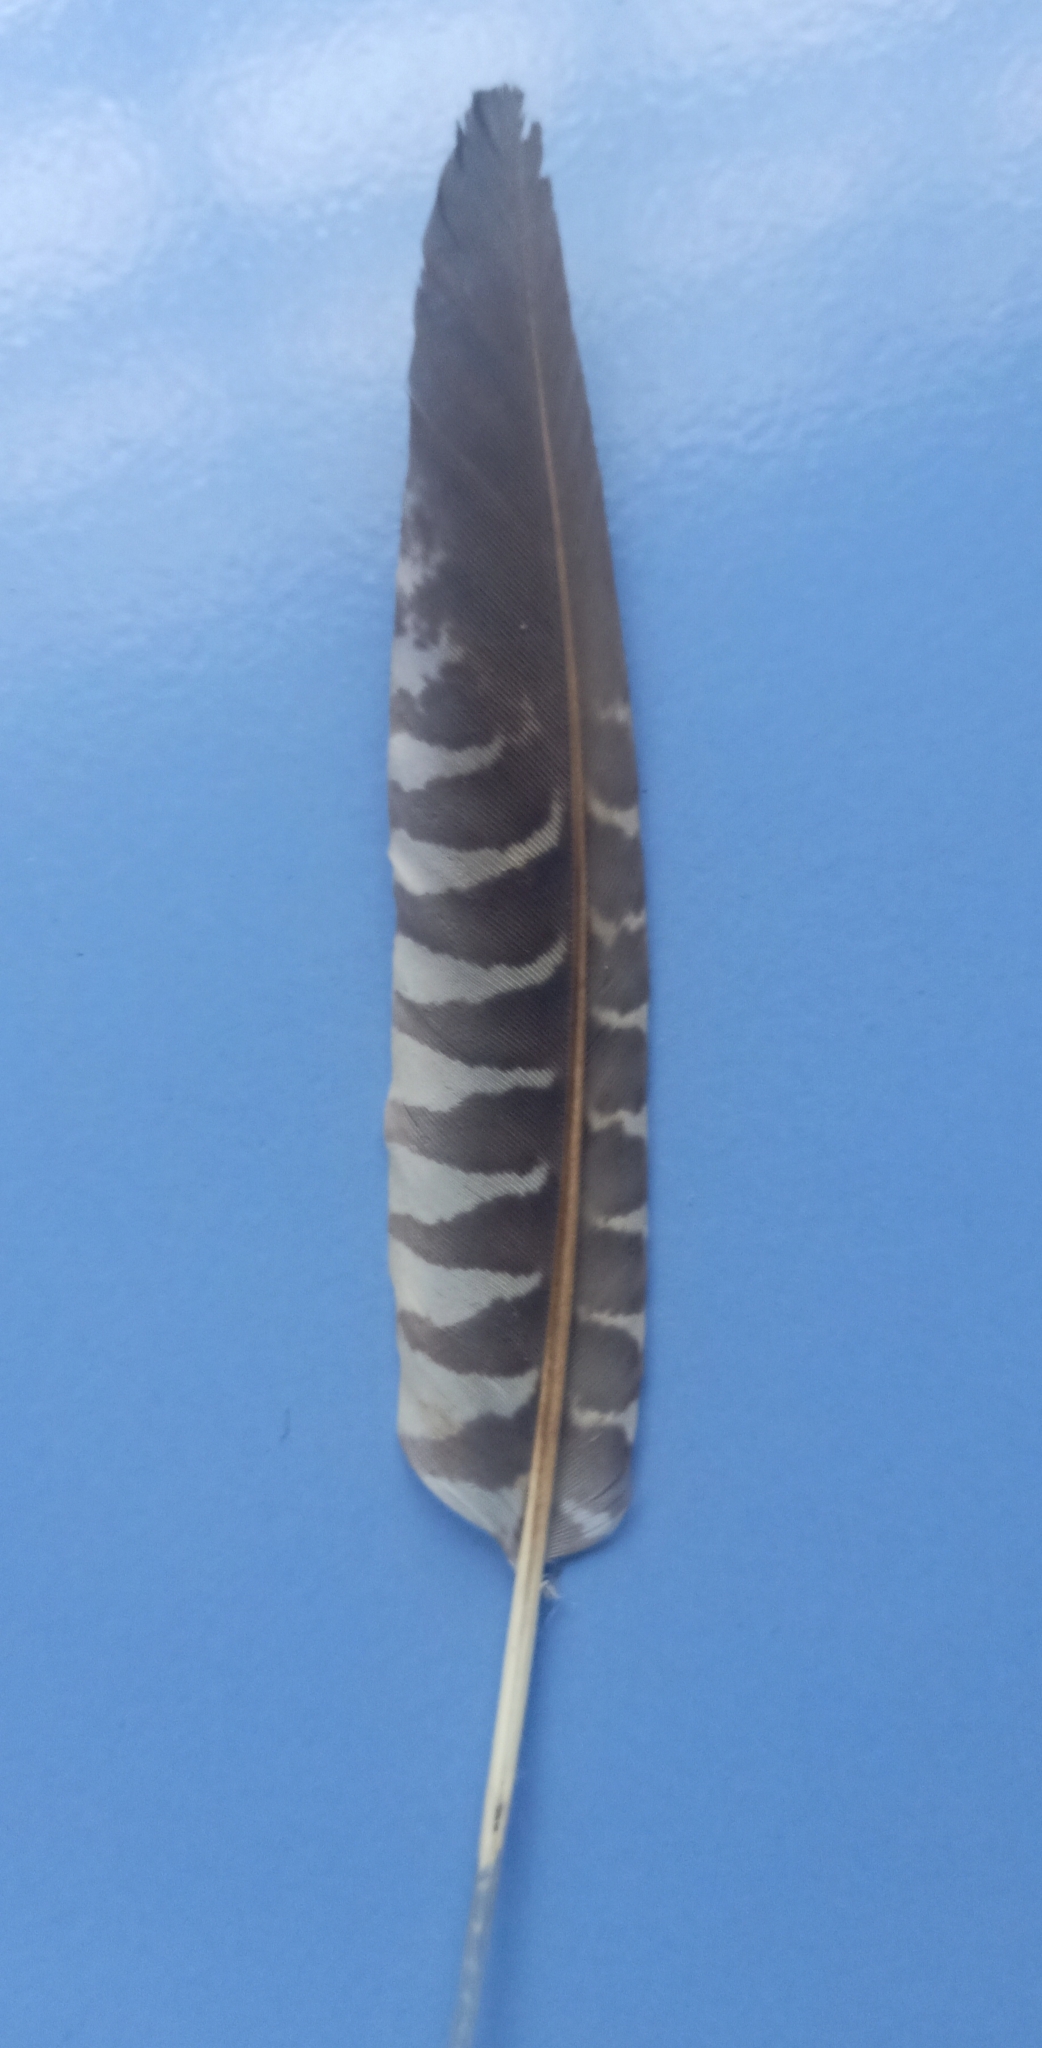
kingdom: Animalia
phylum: Chordata
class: Aves
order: Cuculiformes
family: Cuculidae
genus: Eudynamys
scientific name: Eudynamys scolopaceus
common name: Asian koel
